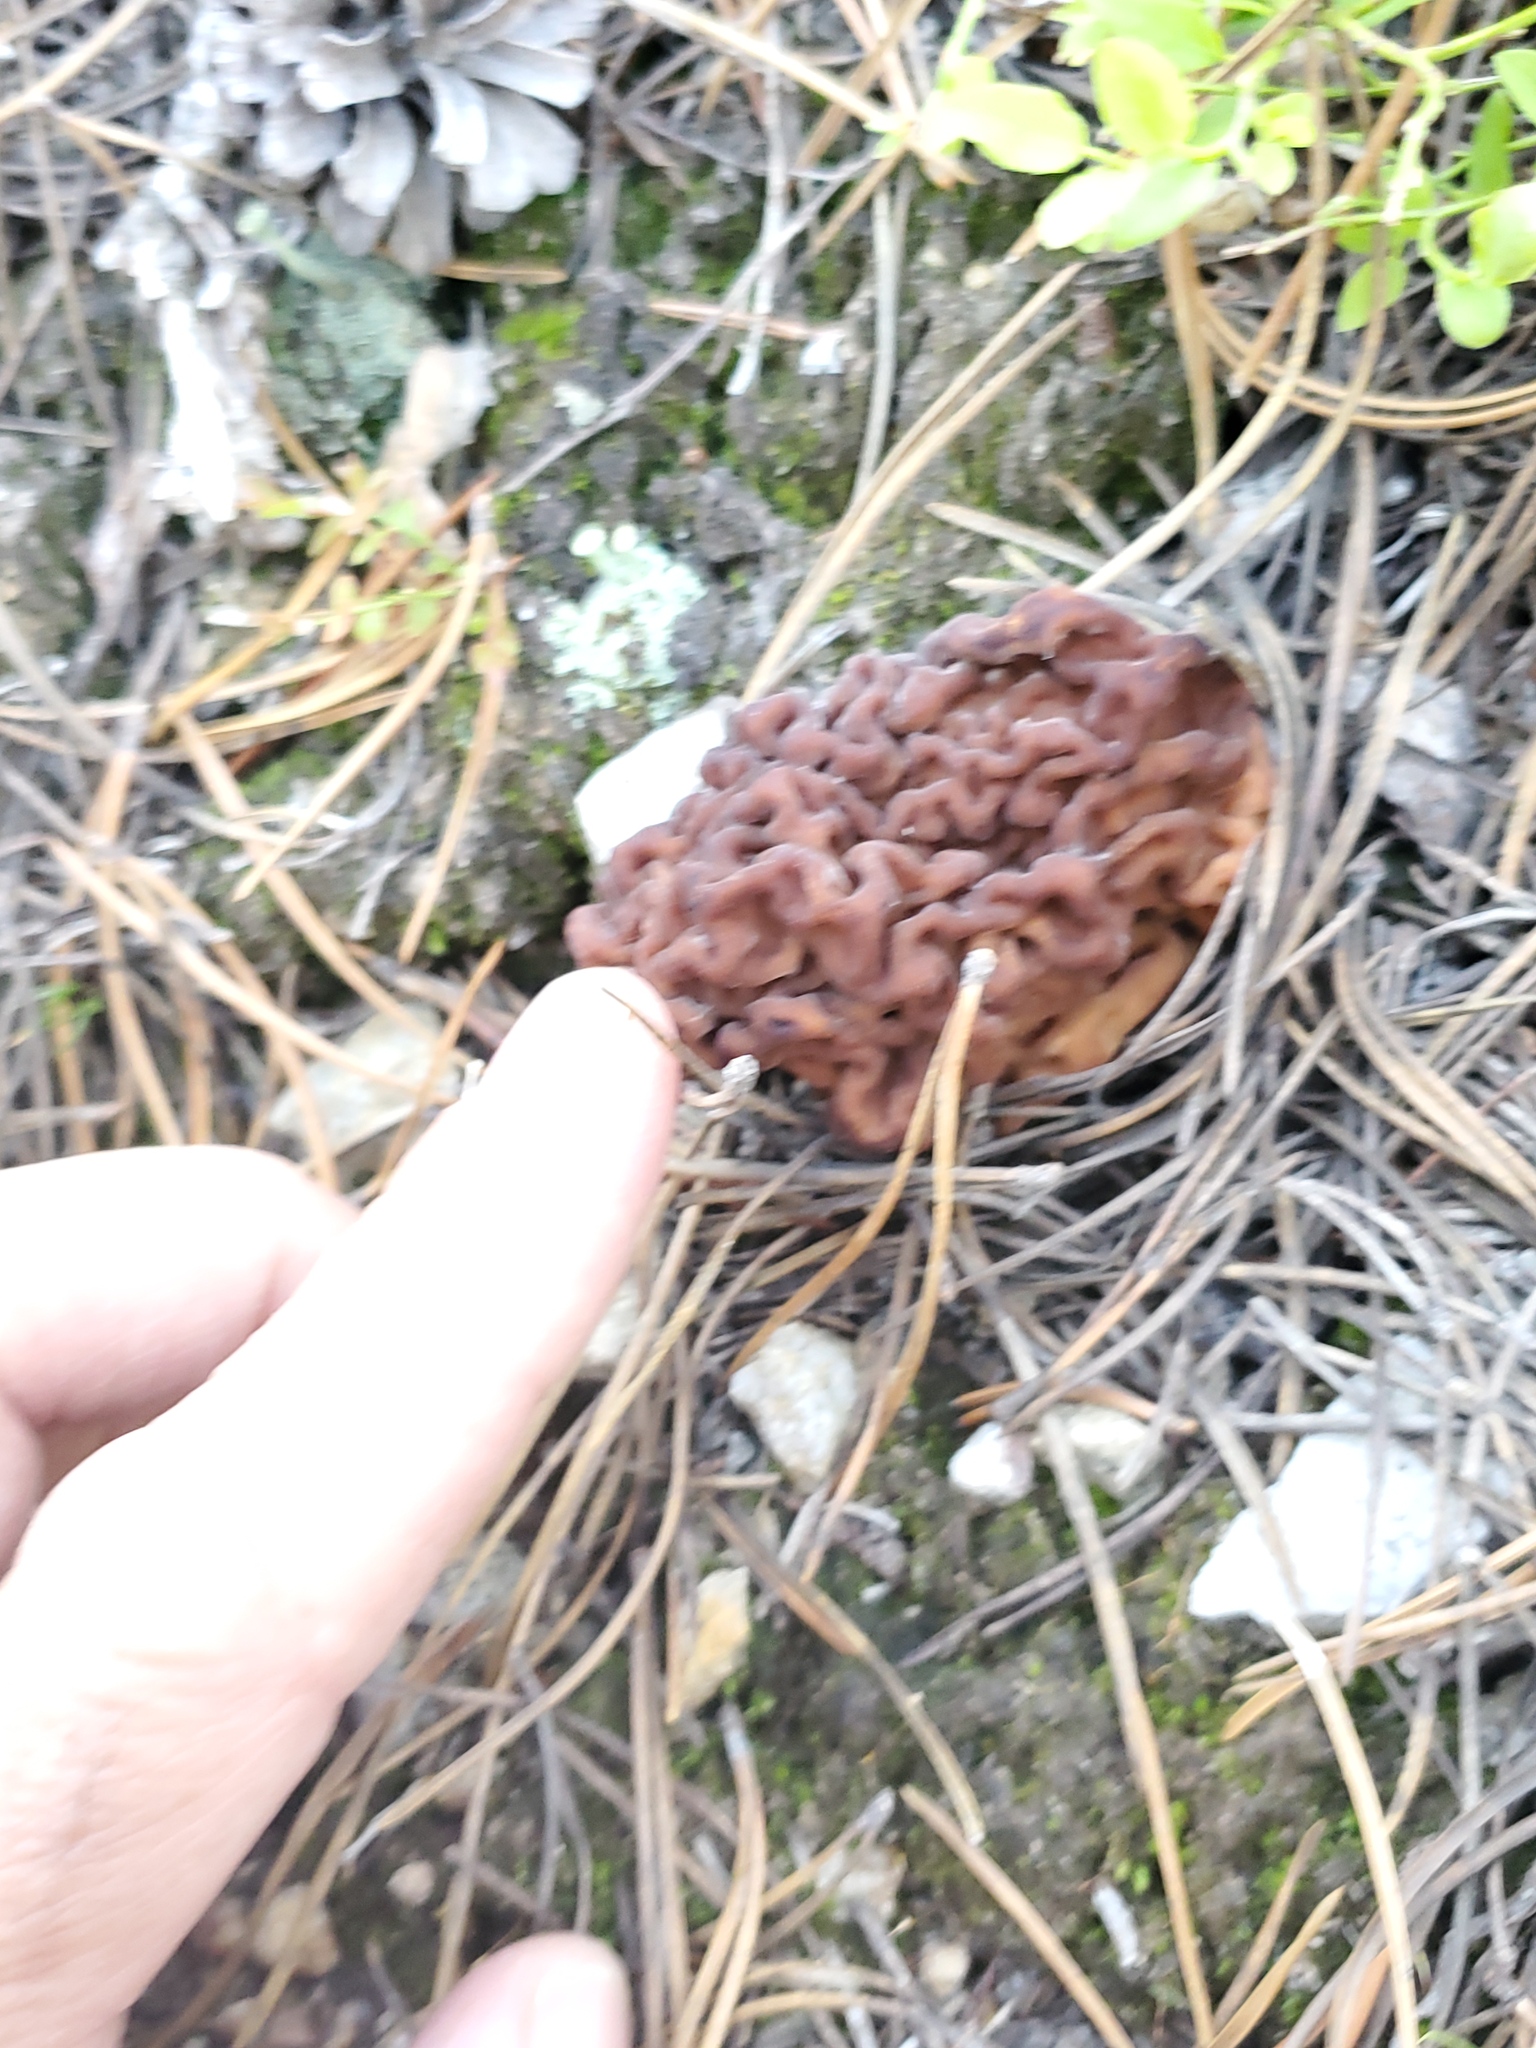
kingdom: Fungi
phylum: Ascomycota
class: Pezizomycetes
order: Pezizales
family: Discinaceae
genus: Gyromitra
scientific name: Gyromitra esculenta
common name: False morel
